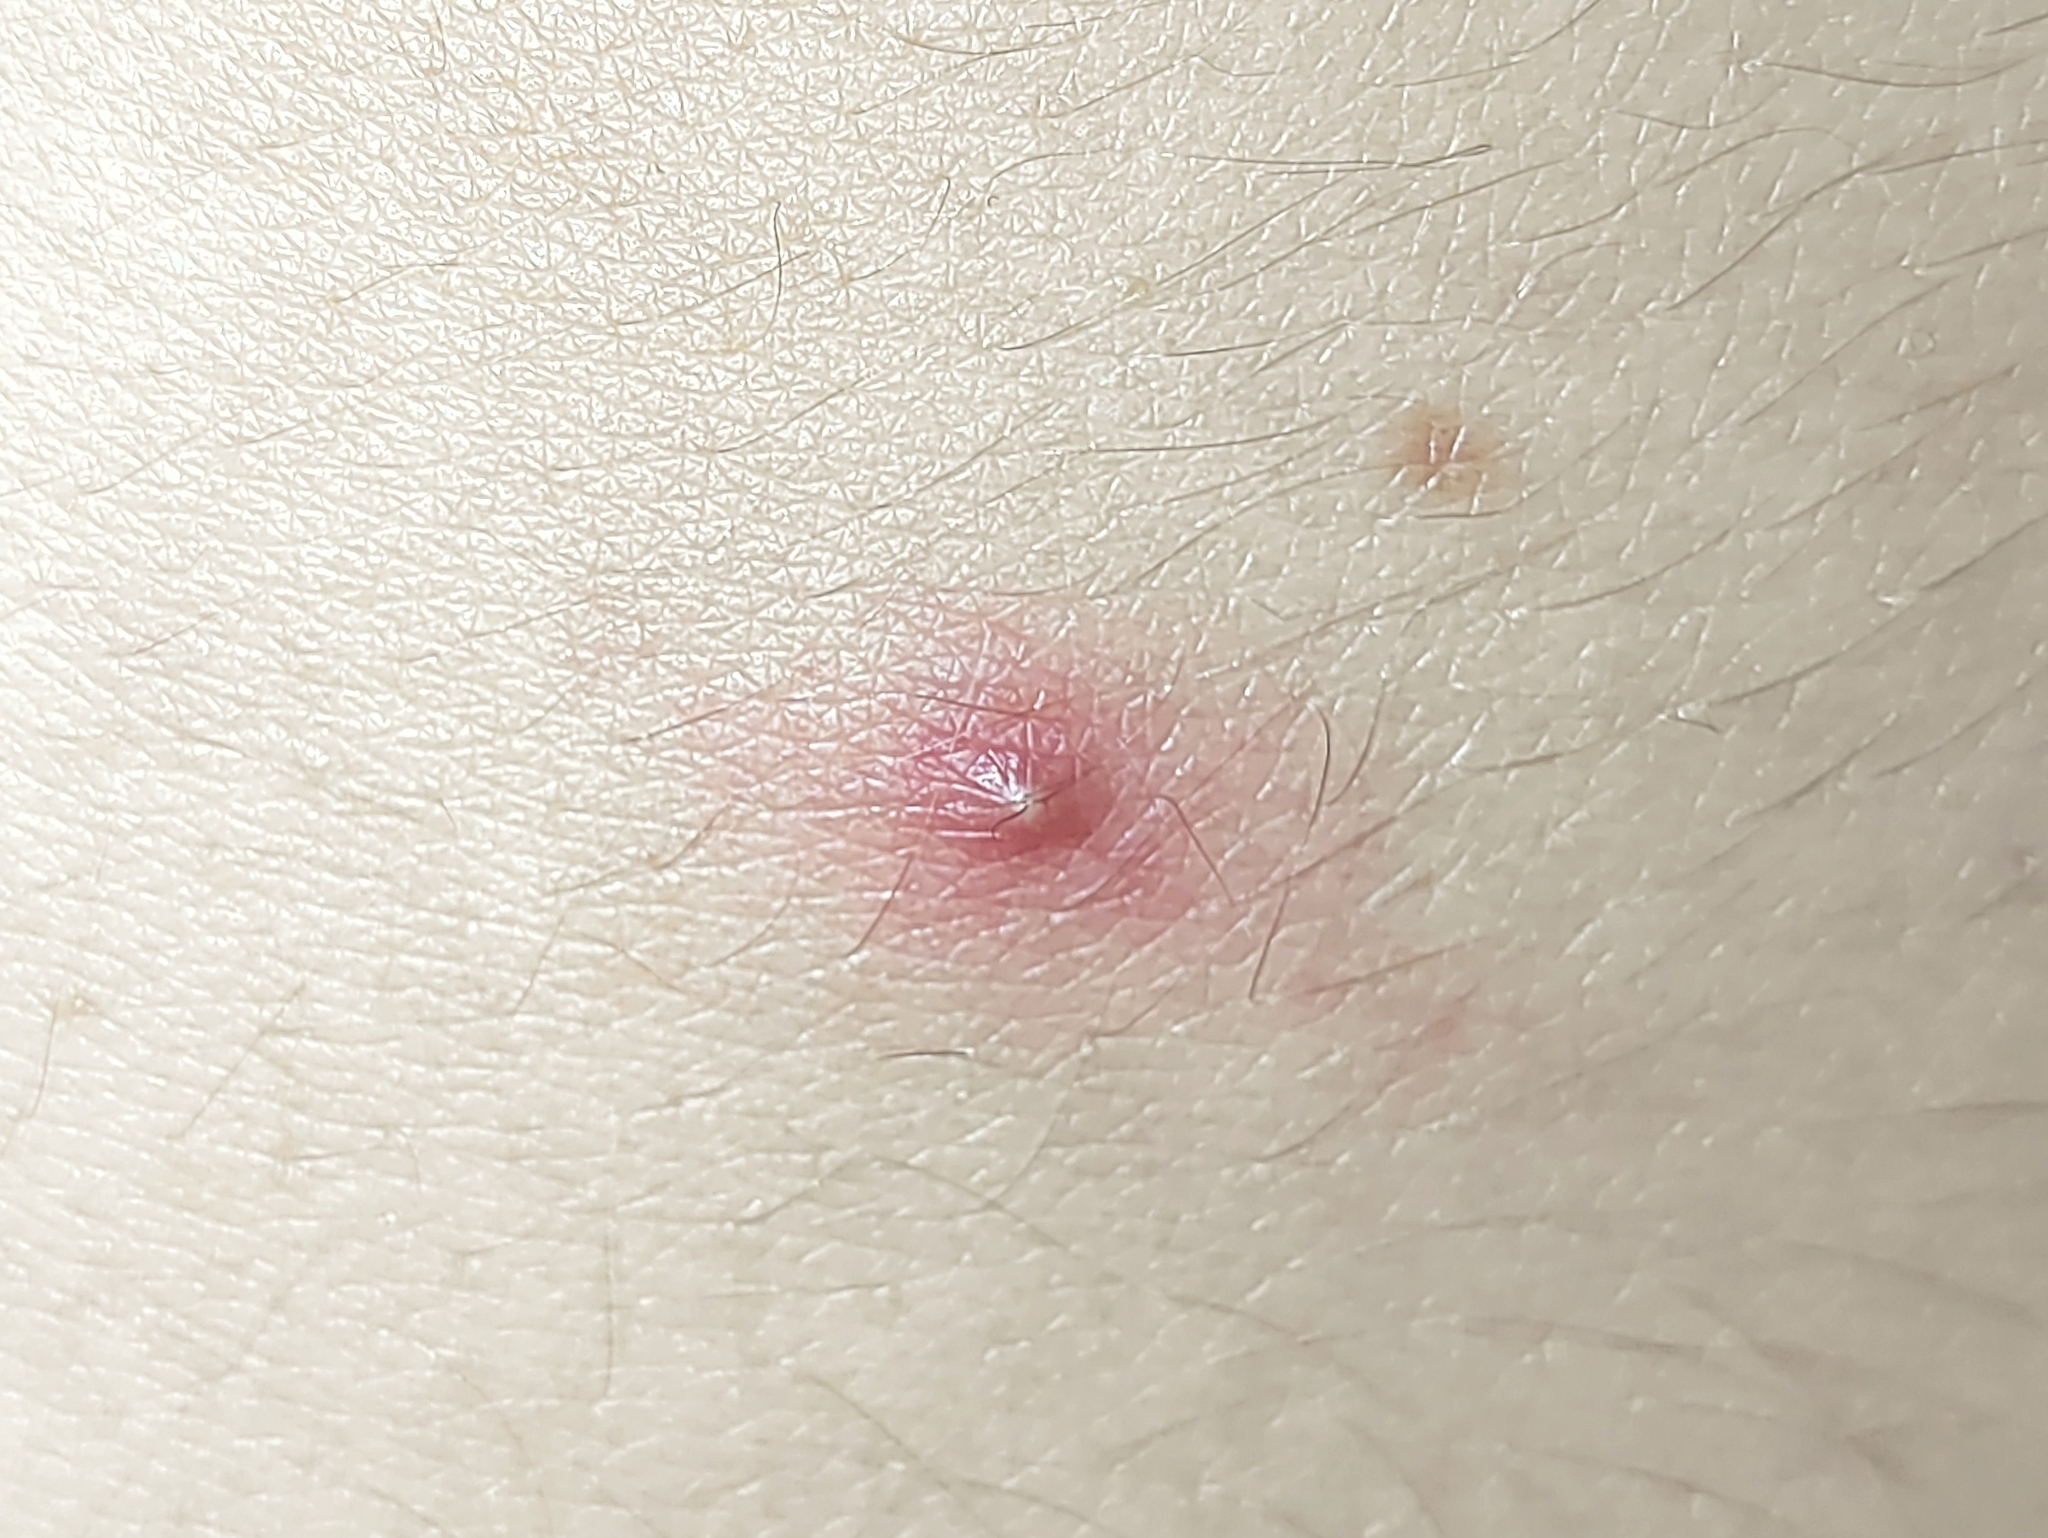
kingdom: Bacteria
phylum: Actinobacteriota
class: Actinomycetia
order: Propionibacteriales
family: Propionibacteriaceae
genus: Cutibacterium
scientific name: Cutibacterium acnes
